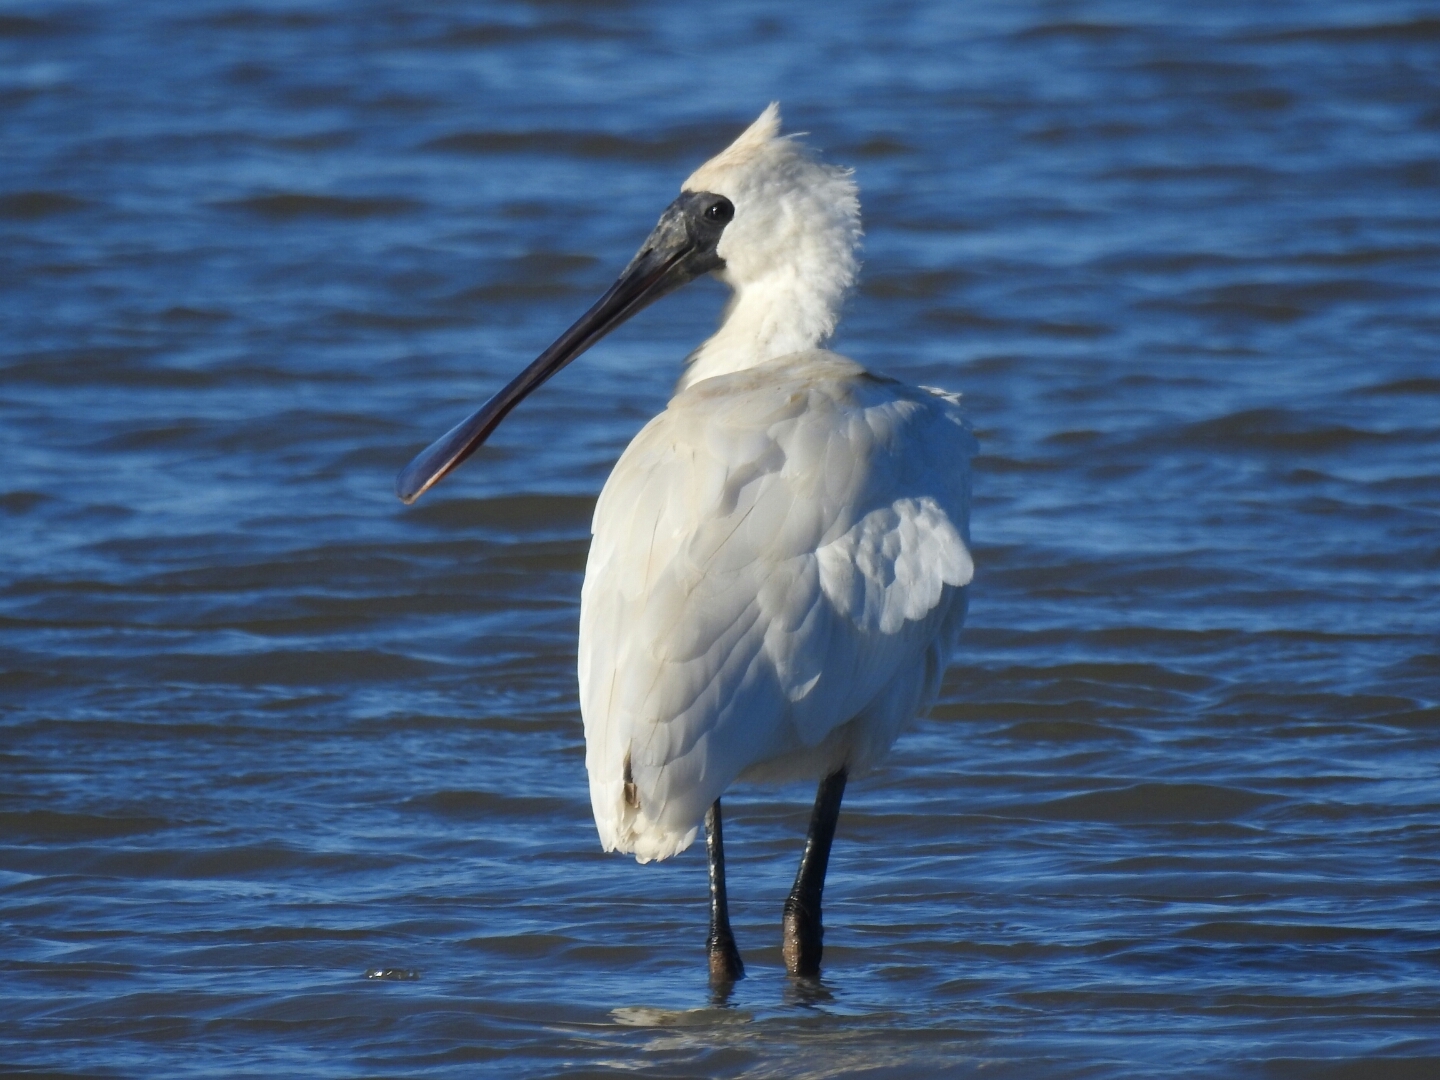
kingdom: Animalia
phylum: Chordata
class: Aves
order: Pelecaniformes
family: Threskiornithidae
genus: Platalea
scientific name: Platalea regia
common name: Royal spoonbill
